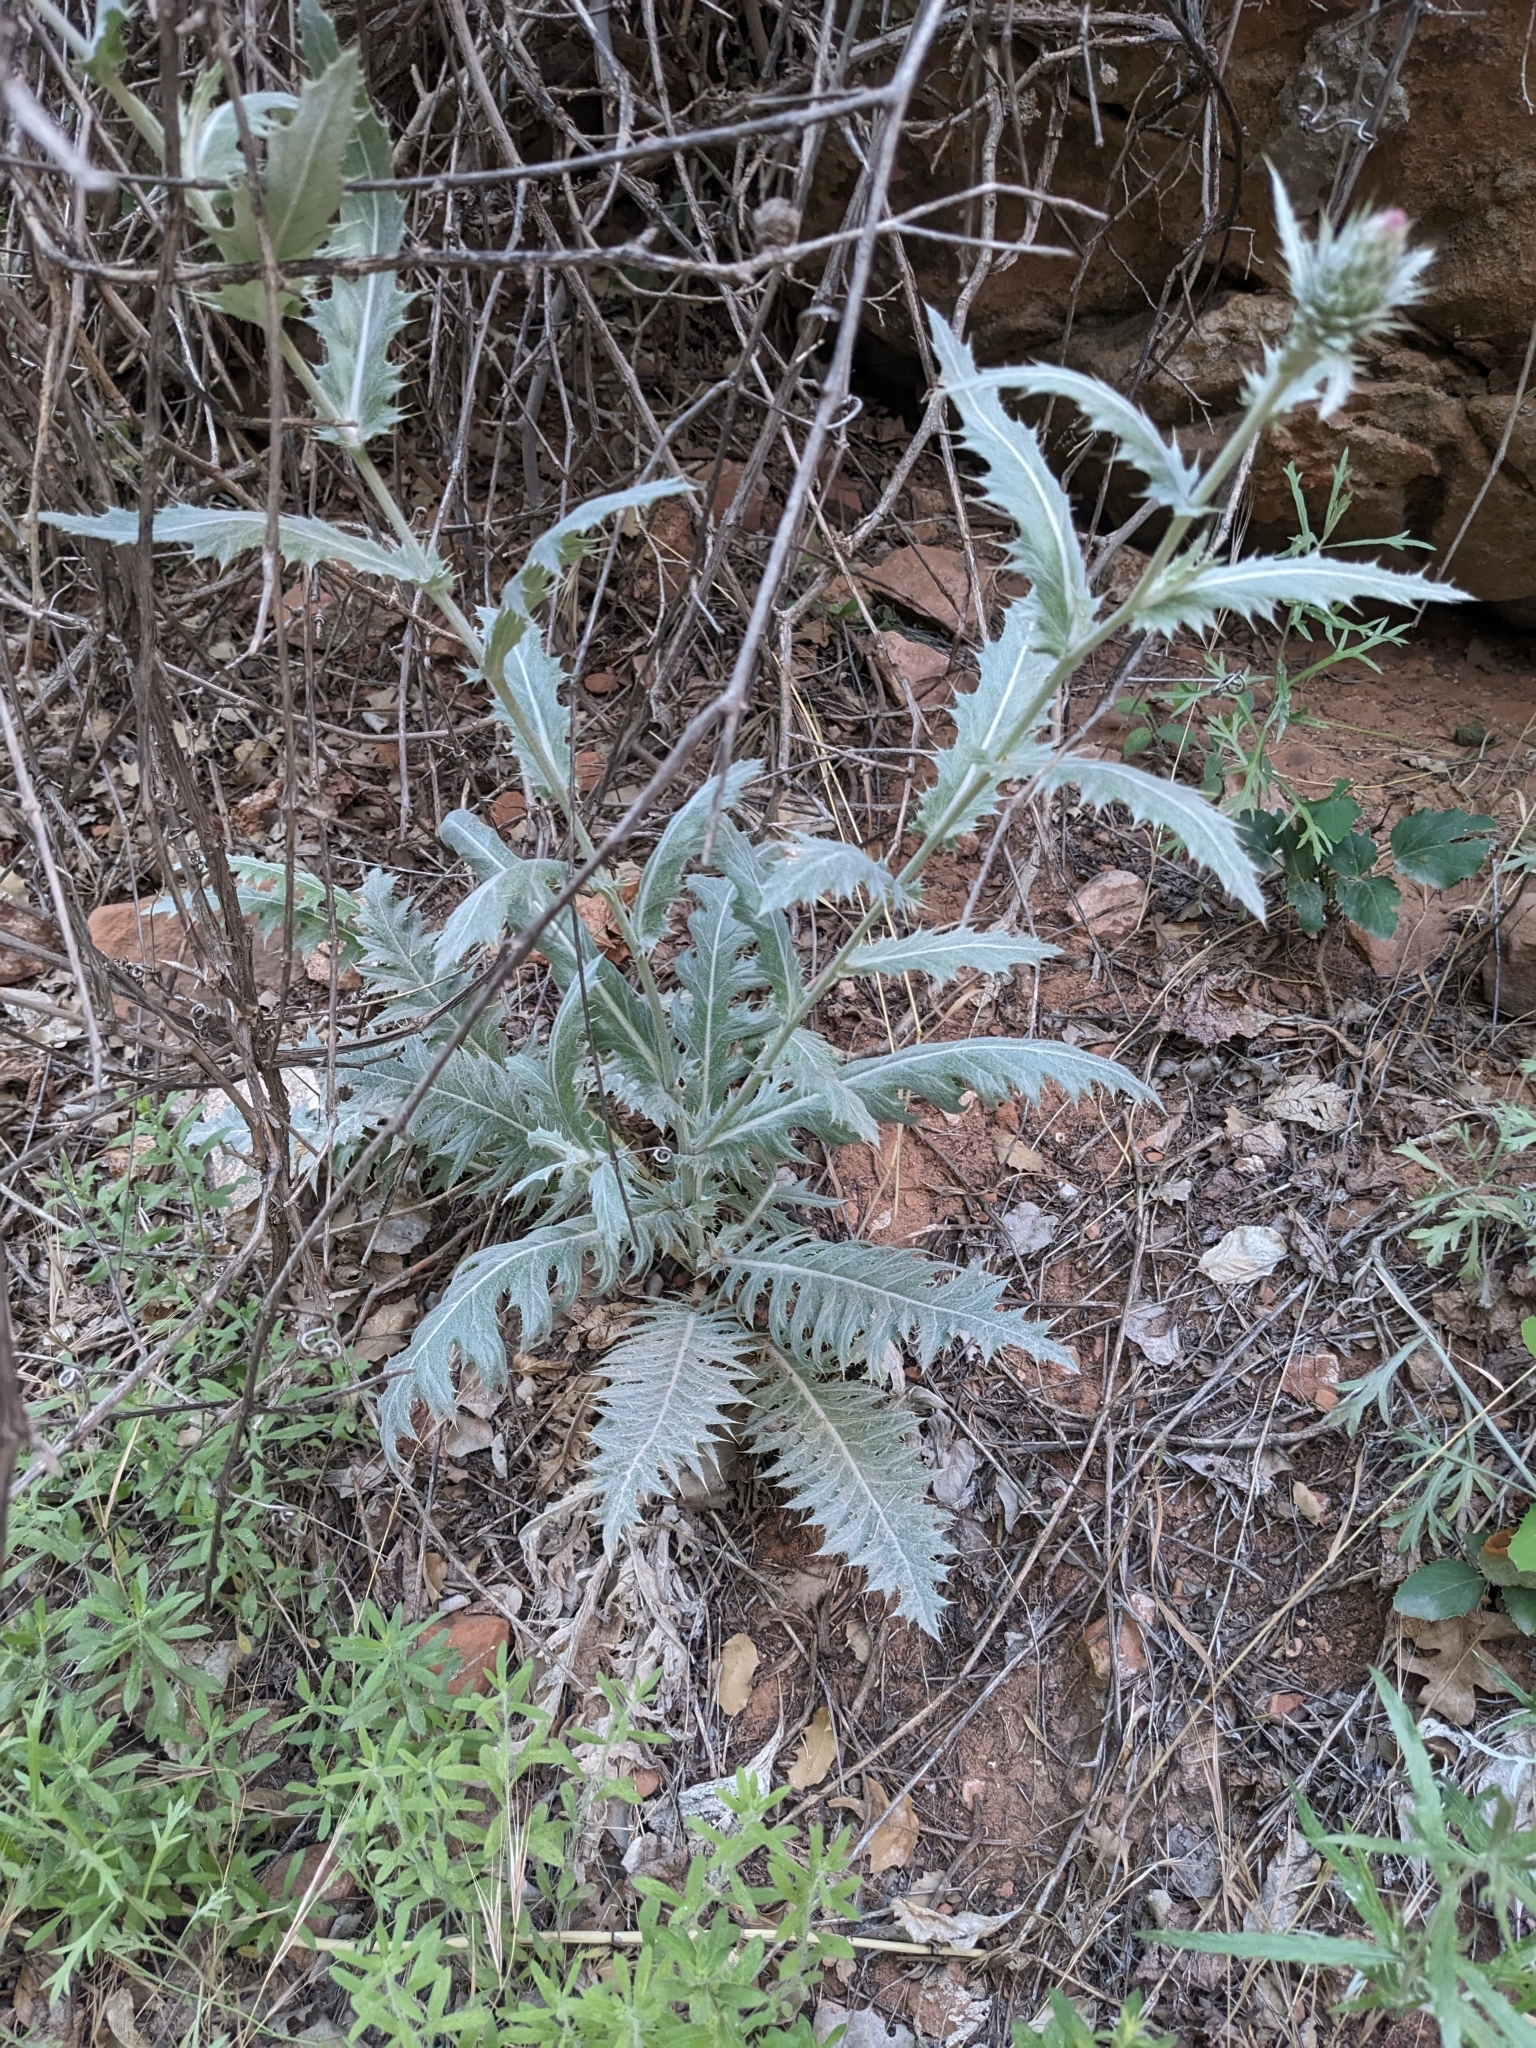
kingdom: Plantae
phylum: Tracheophyta
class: Magnoliopsida
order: Asterales
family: Asteraceae
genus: Cirsium
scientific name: Cirsium arizonicum
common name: Arizona thistle
